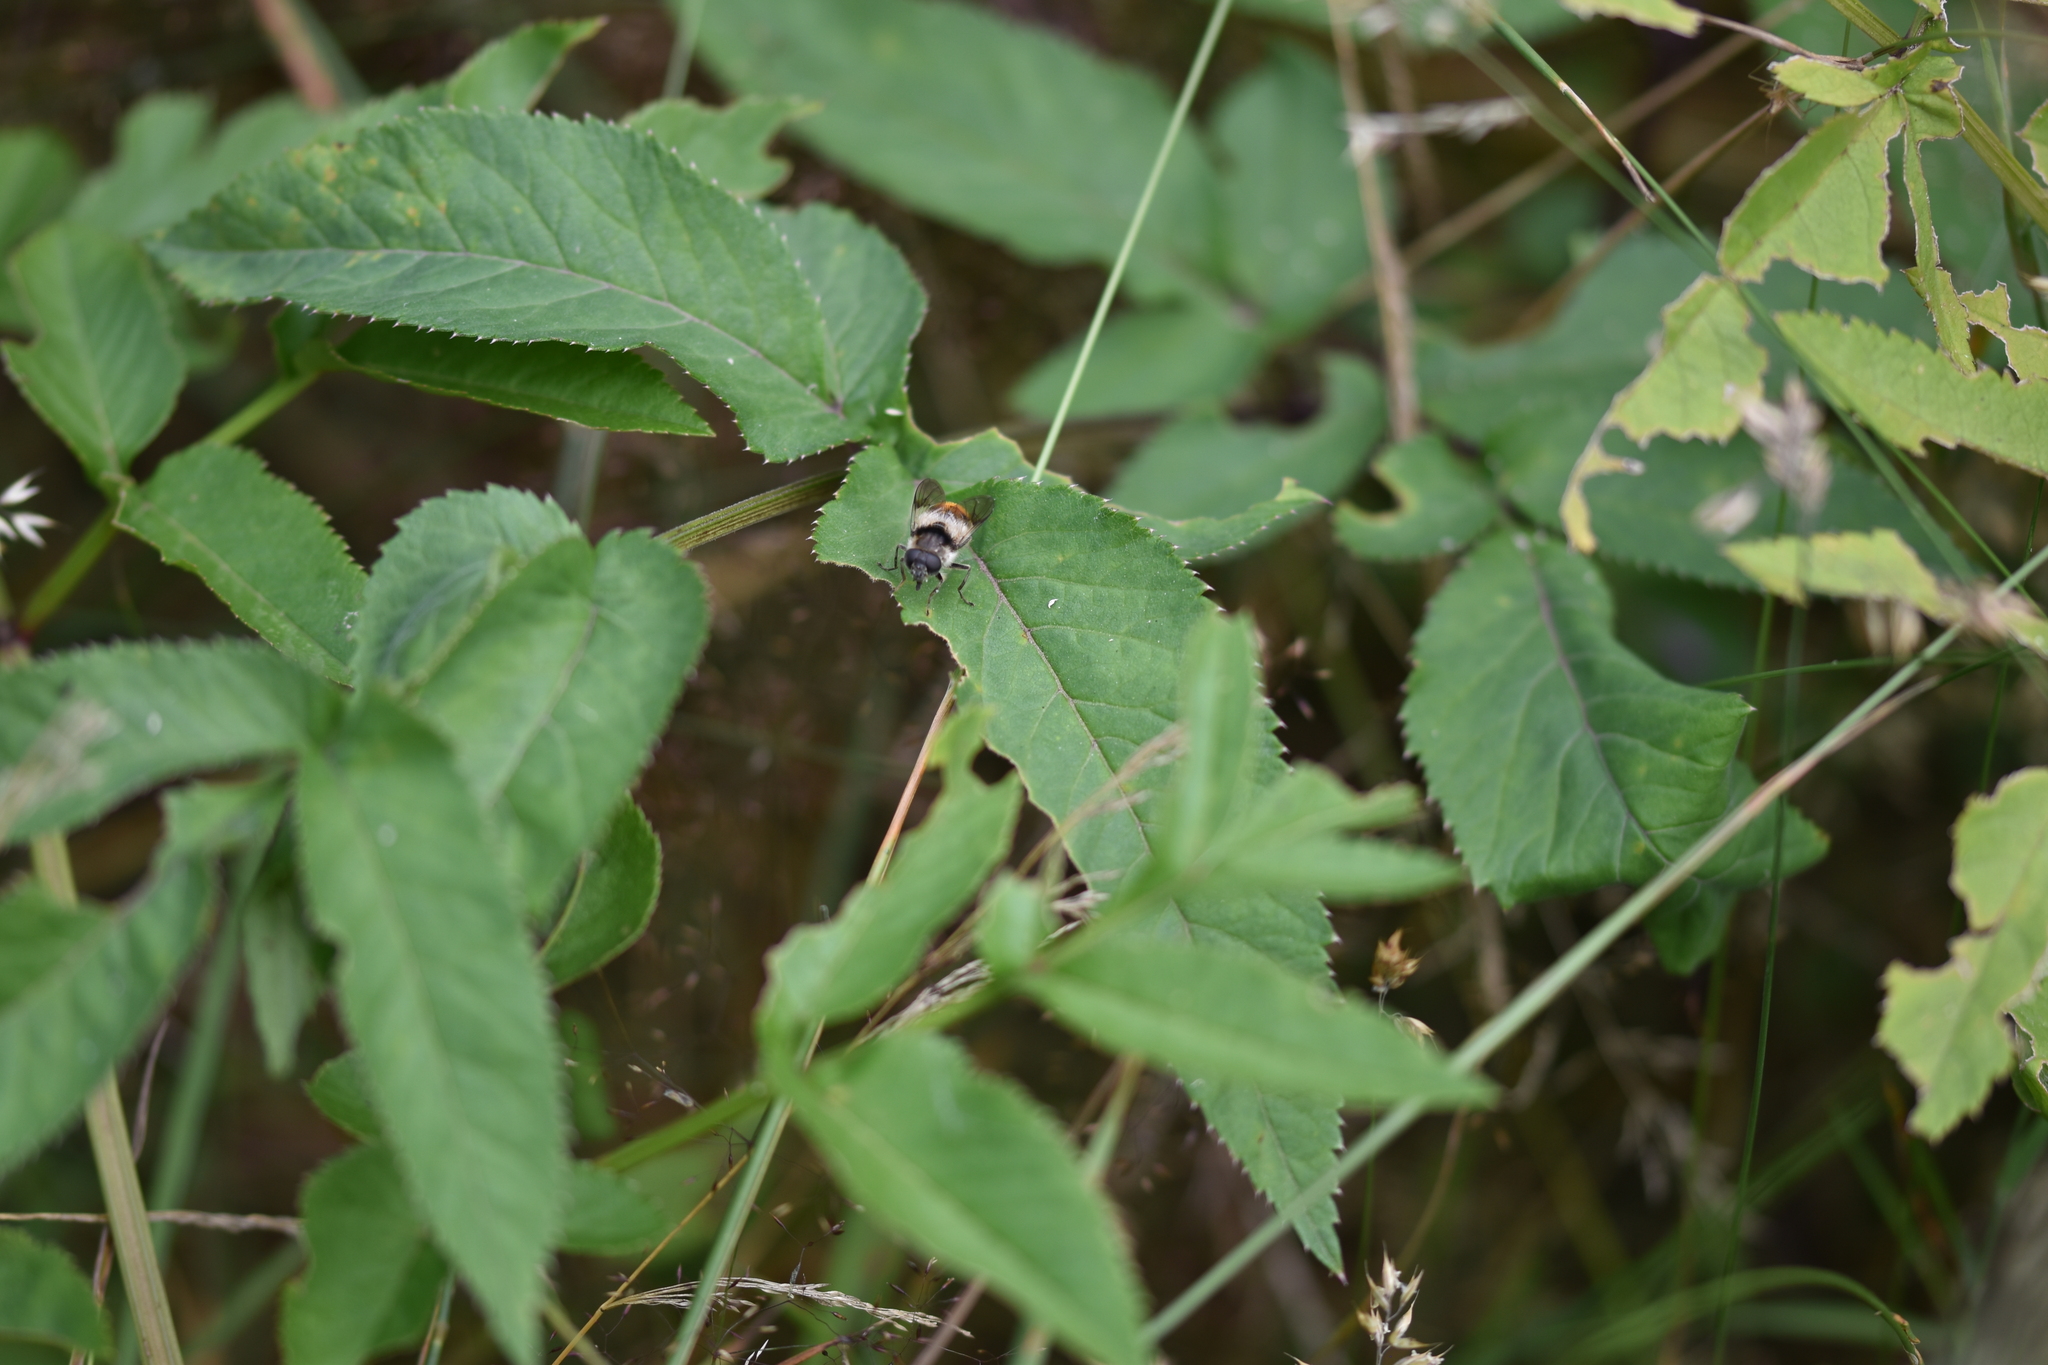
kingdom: Animalia
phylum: Arthropoda
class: Insecta
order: Diptera
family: Syrphidae
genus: Cheilosia
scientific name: Cheilosia illustrata
